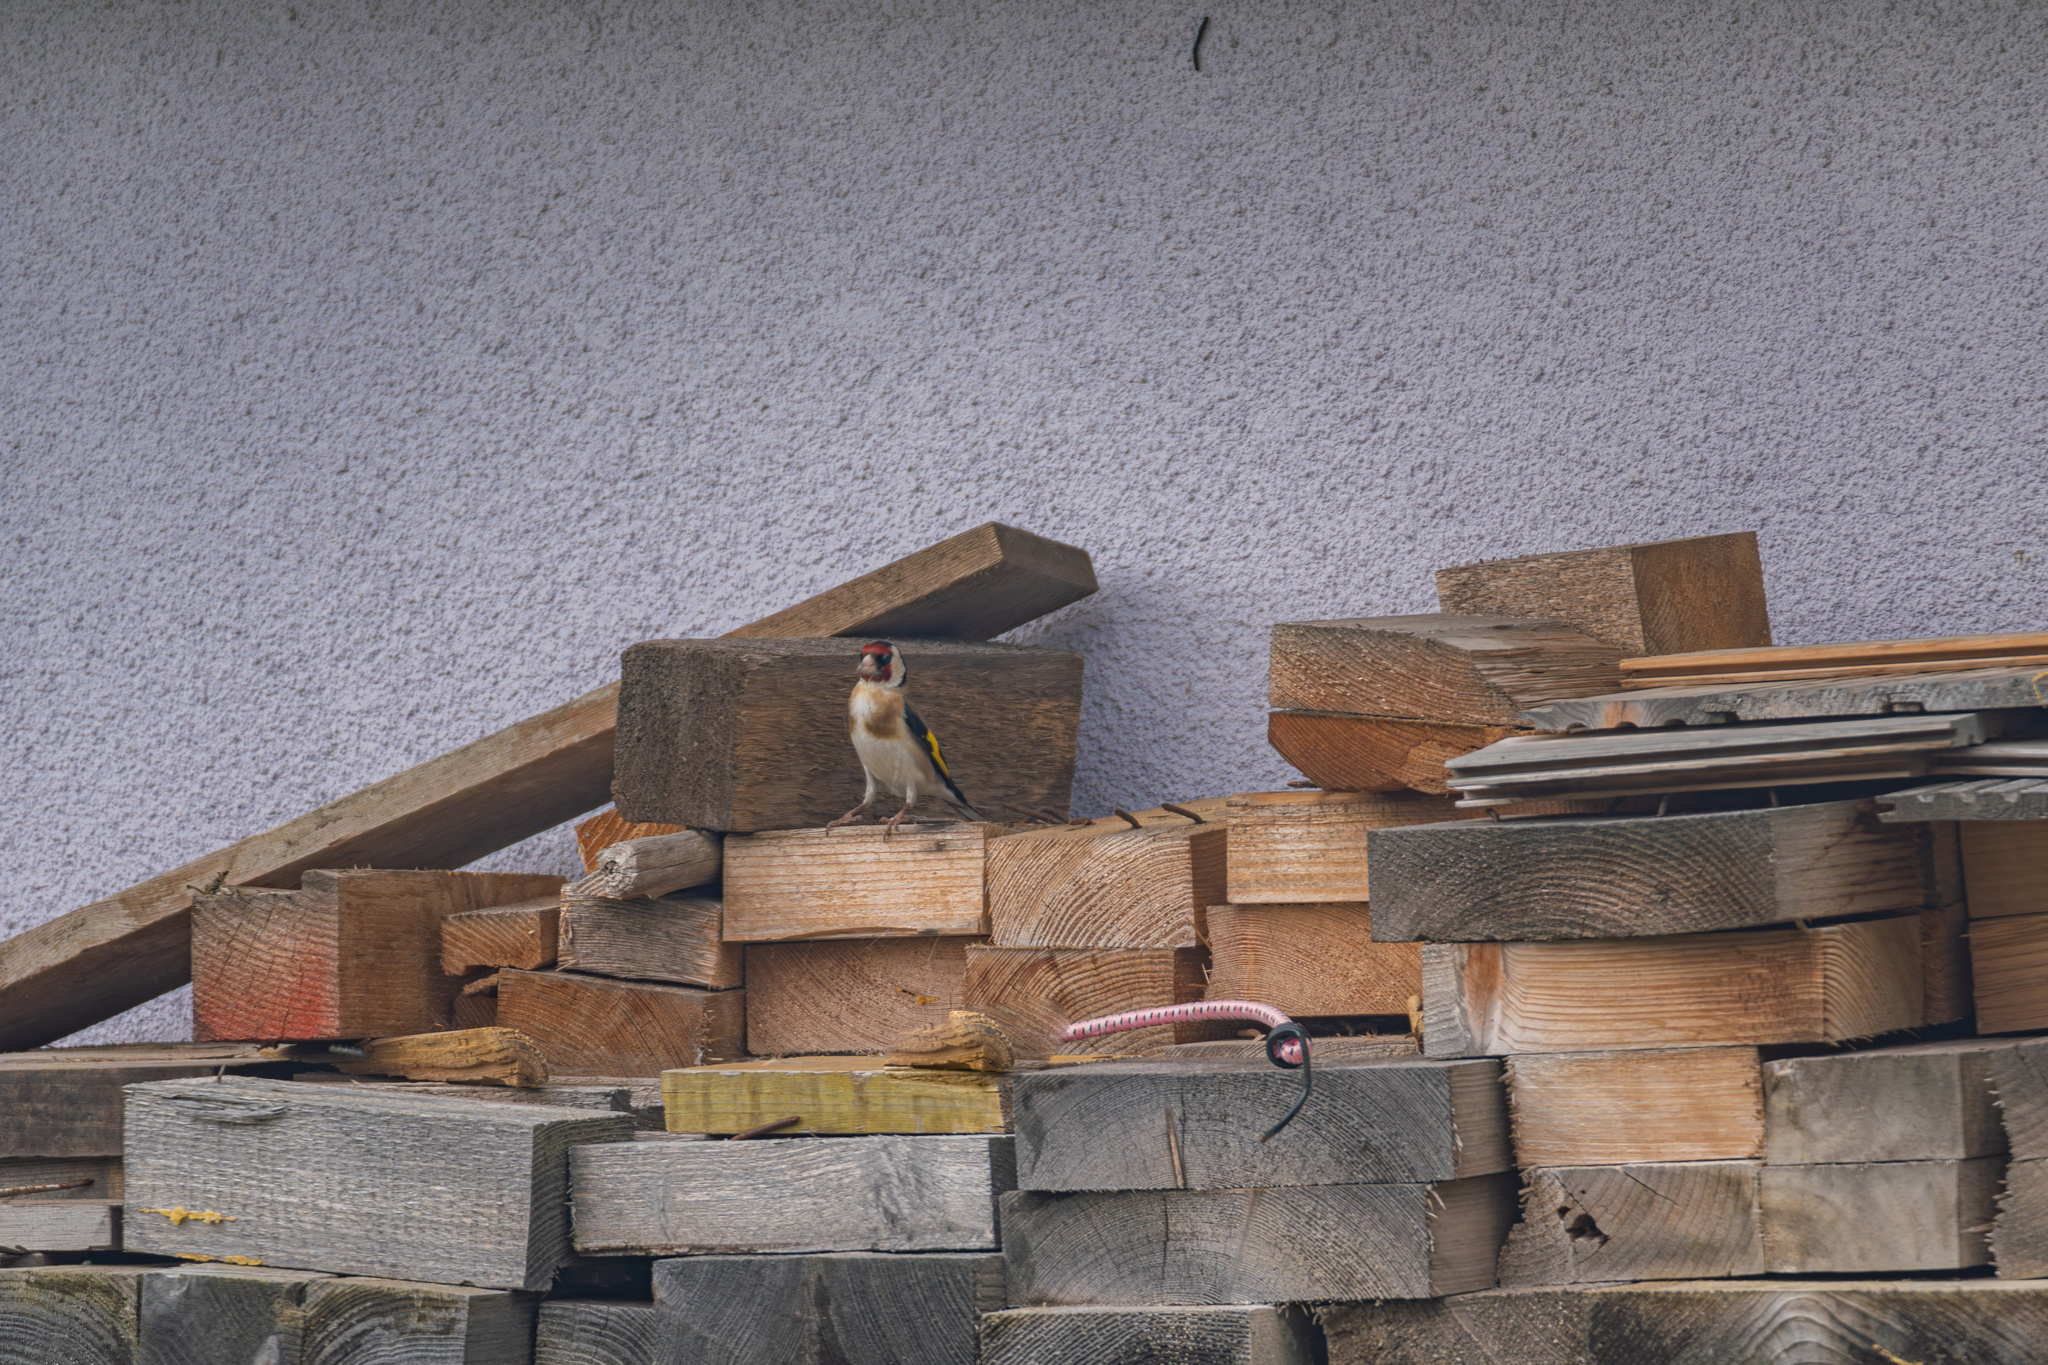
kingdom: Animalia
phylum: Chordata
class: Aves
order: Passeriformes
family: Fringillidae
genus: Carduelis
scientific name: Carduelis carduelis
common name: European goldfinch
